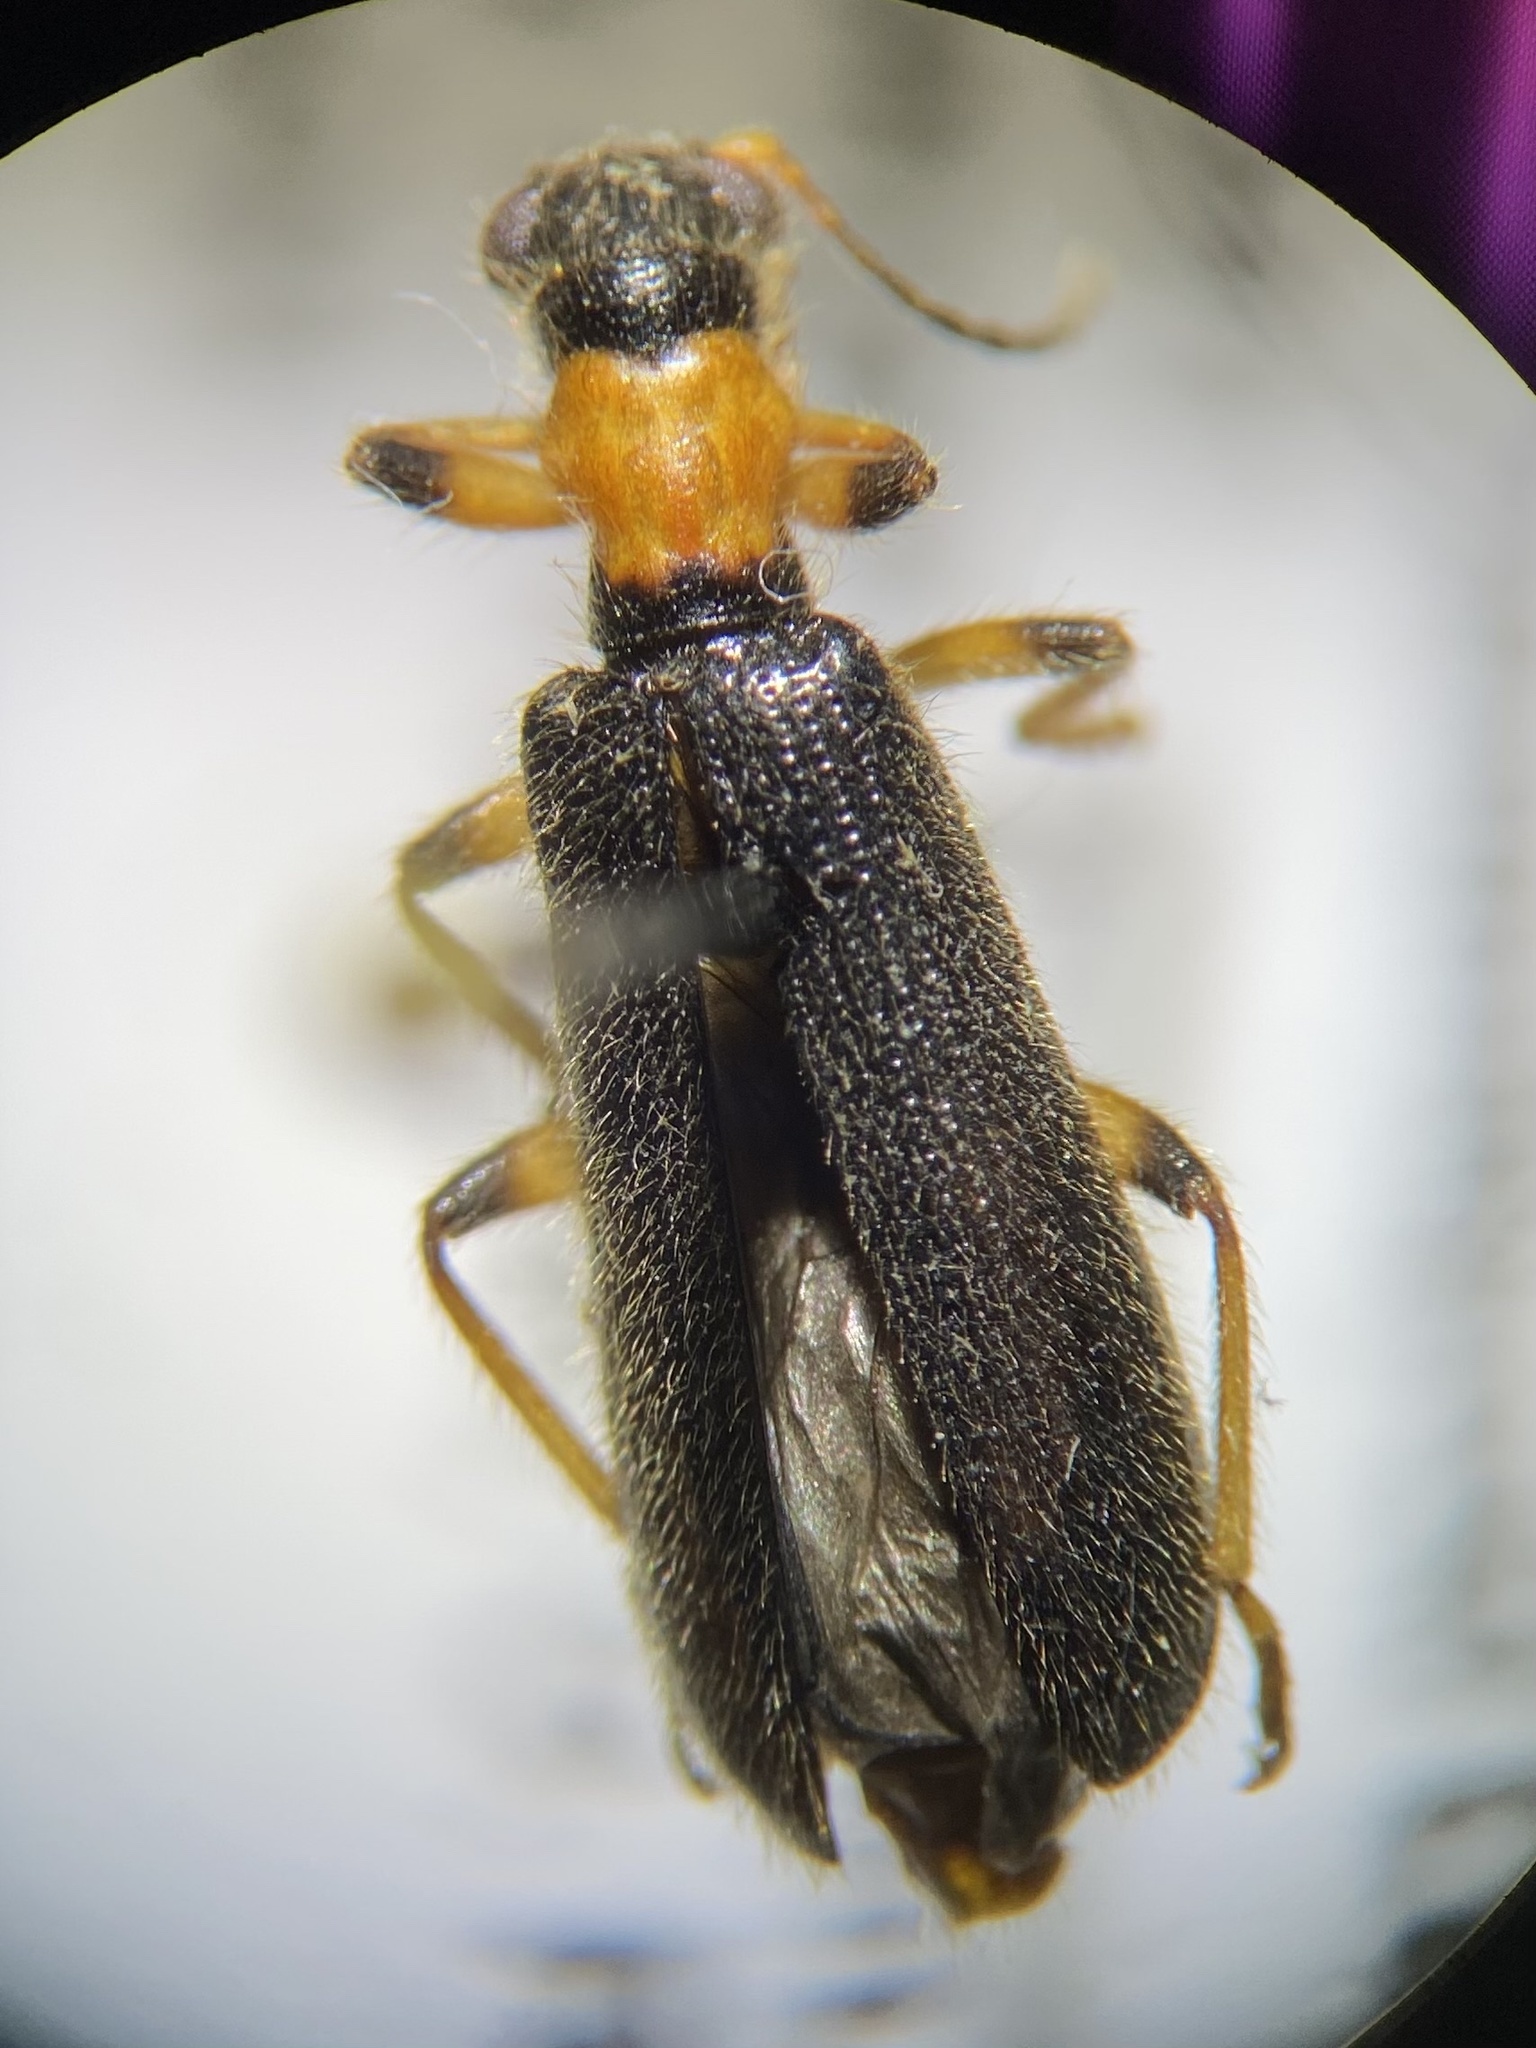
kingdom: Animalia
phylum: Arthropoda
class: Insecta
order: Coleoptera
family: Cleridae
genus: Cymatodera
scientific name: Cymatodera bicolor
